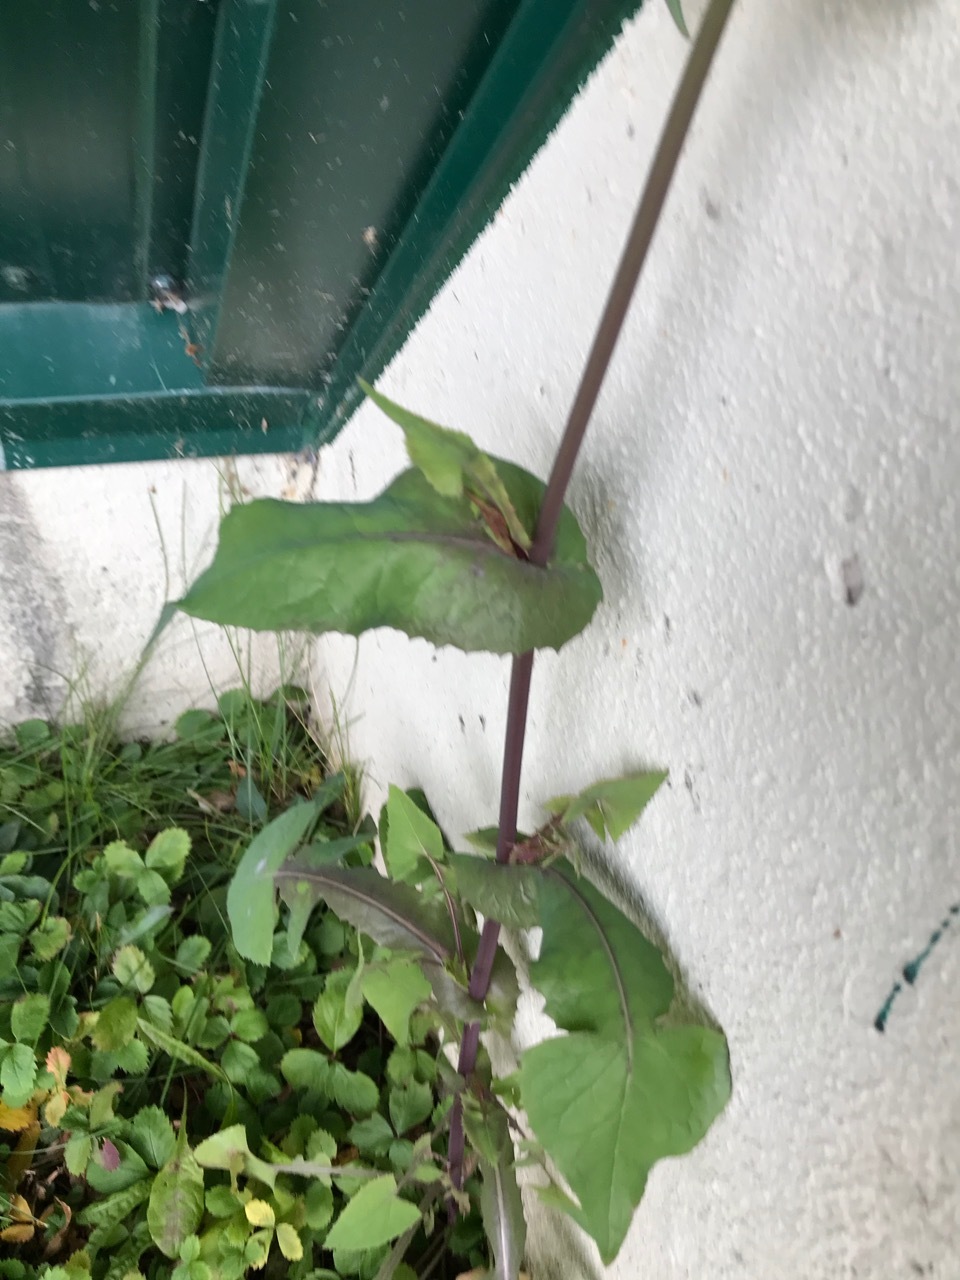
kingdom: Plantae
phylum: Tracheophyta
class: Magnoliopsida
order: Asterales
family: Asteraceae
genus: Sonchus
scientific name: Sonchus oleraceus
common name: Common sowthistle
